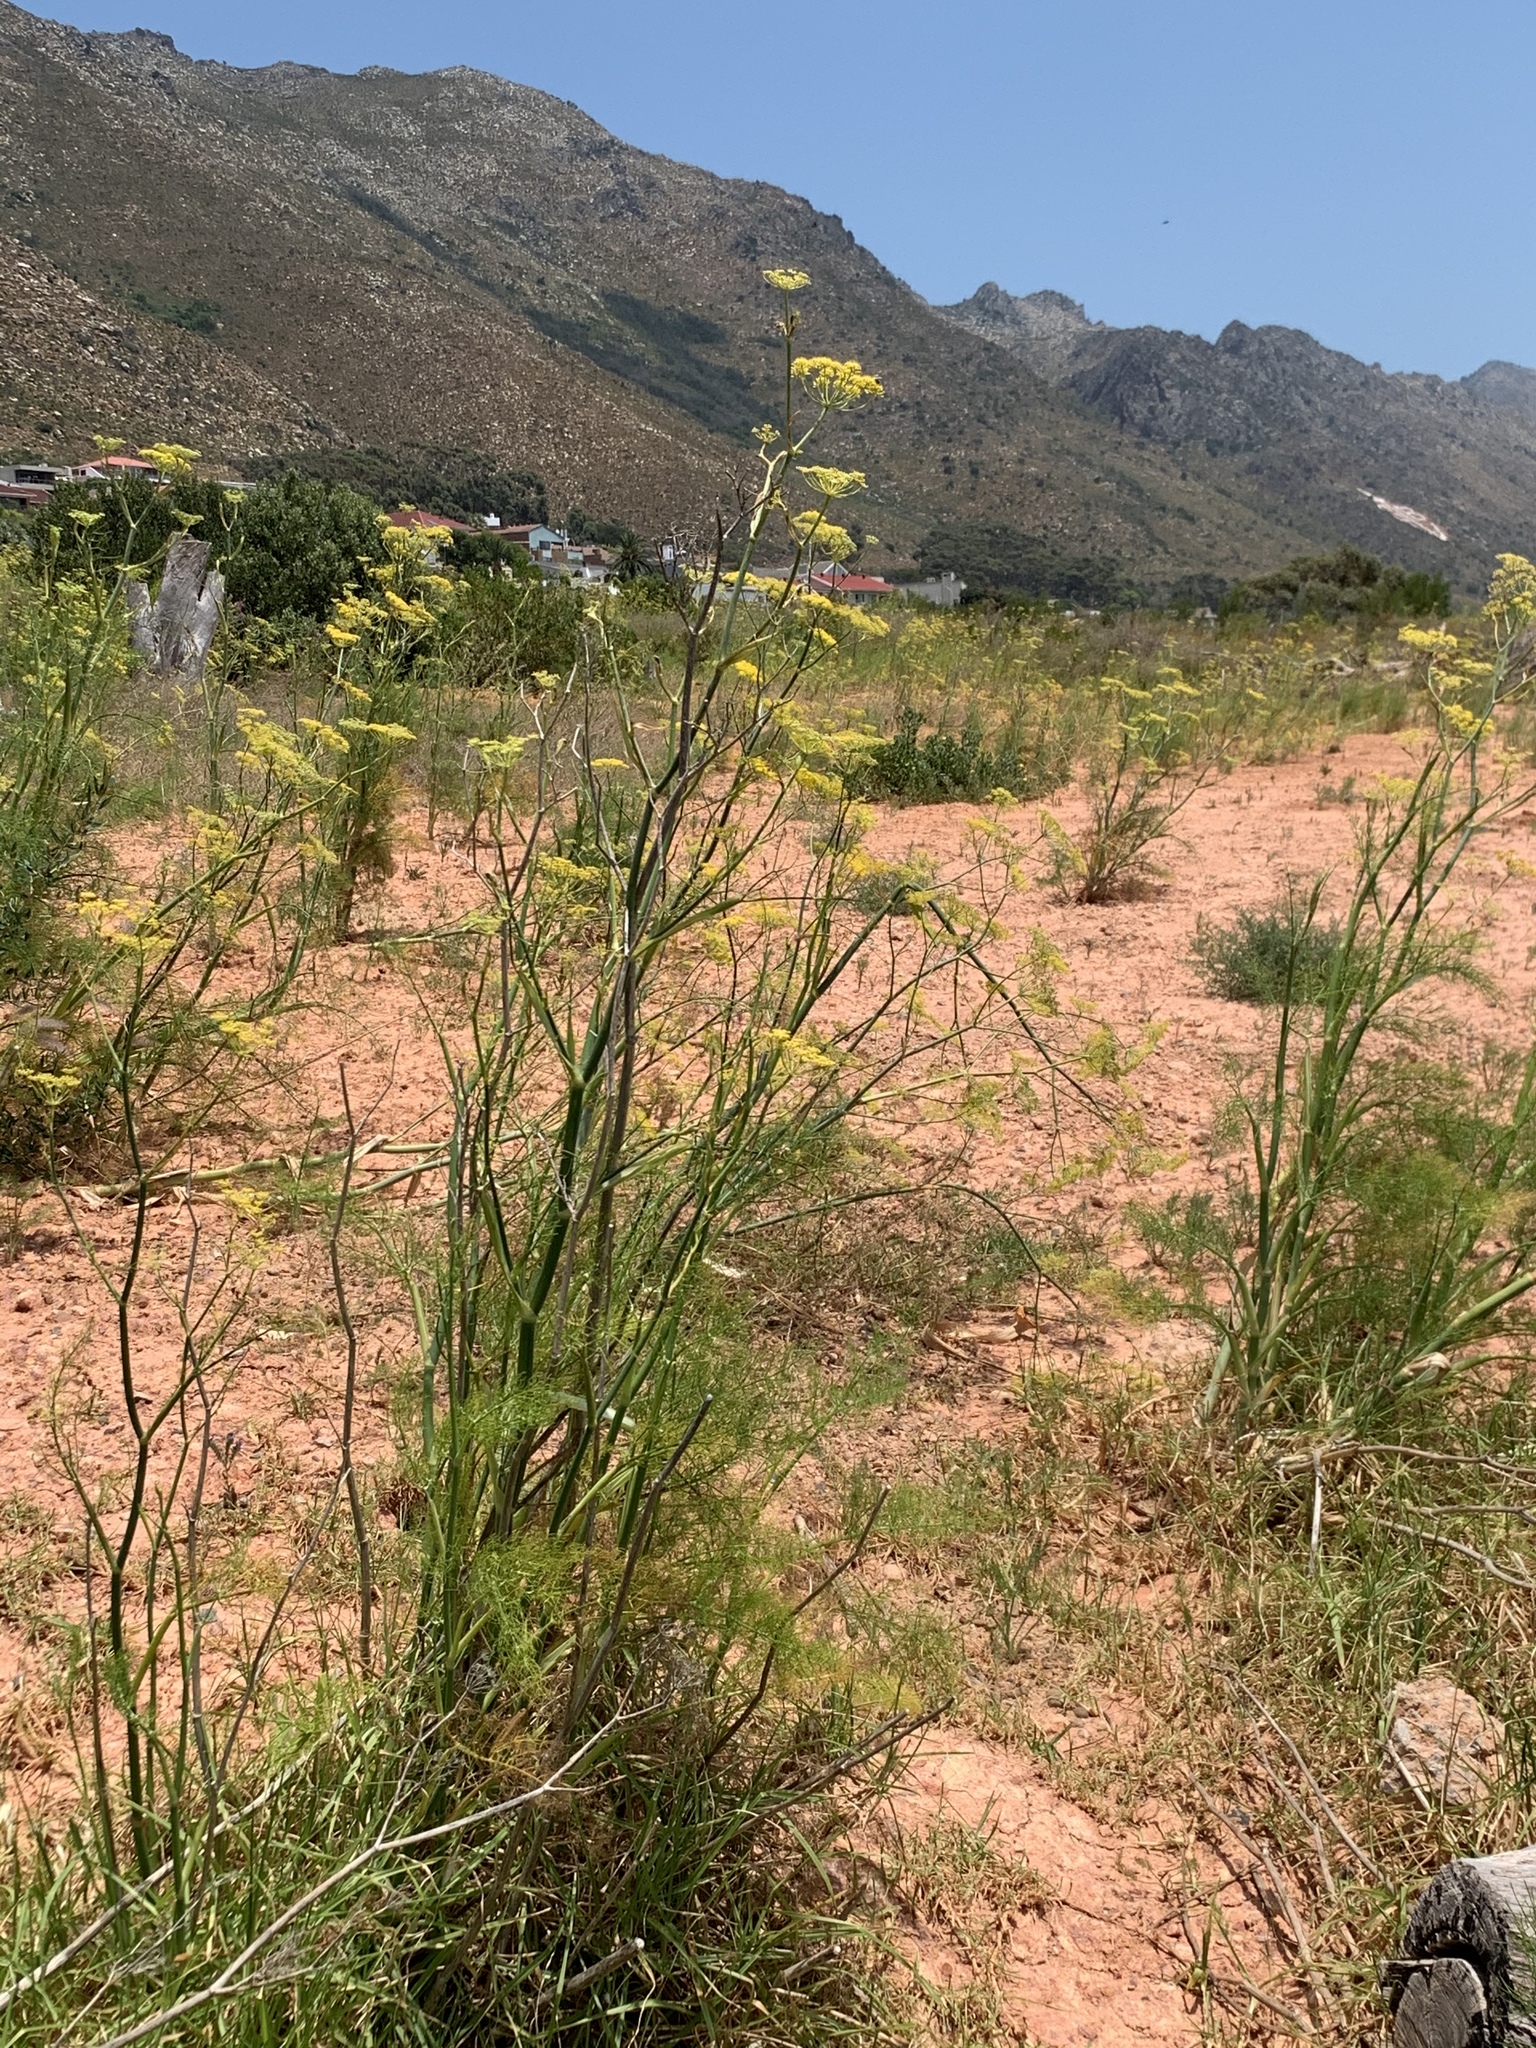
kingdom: Plantae
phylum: Tracheophyta
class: Magnoliopsida
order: Apiales
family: Apiaceae
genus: Foeniculum
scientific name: Foeniculum vulgare
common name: Fennel
